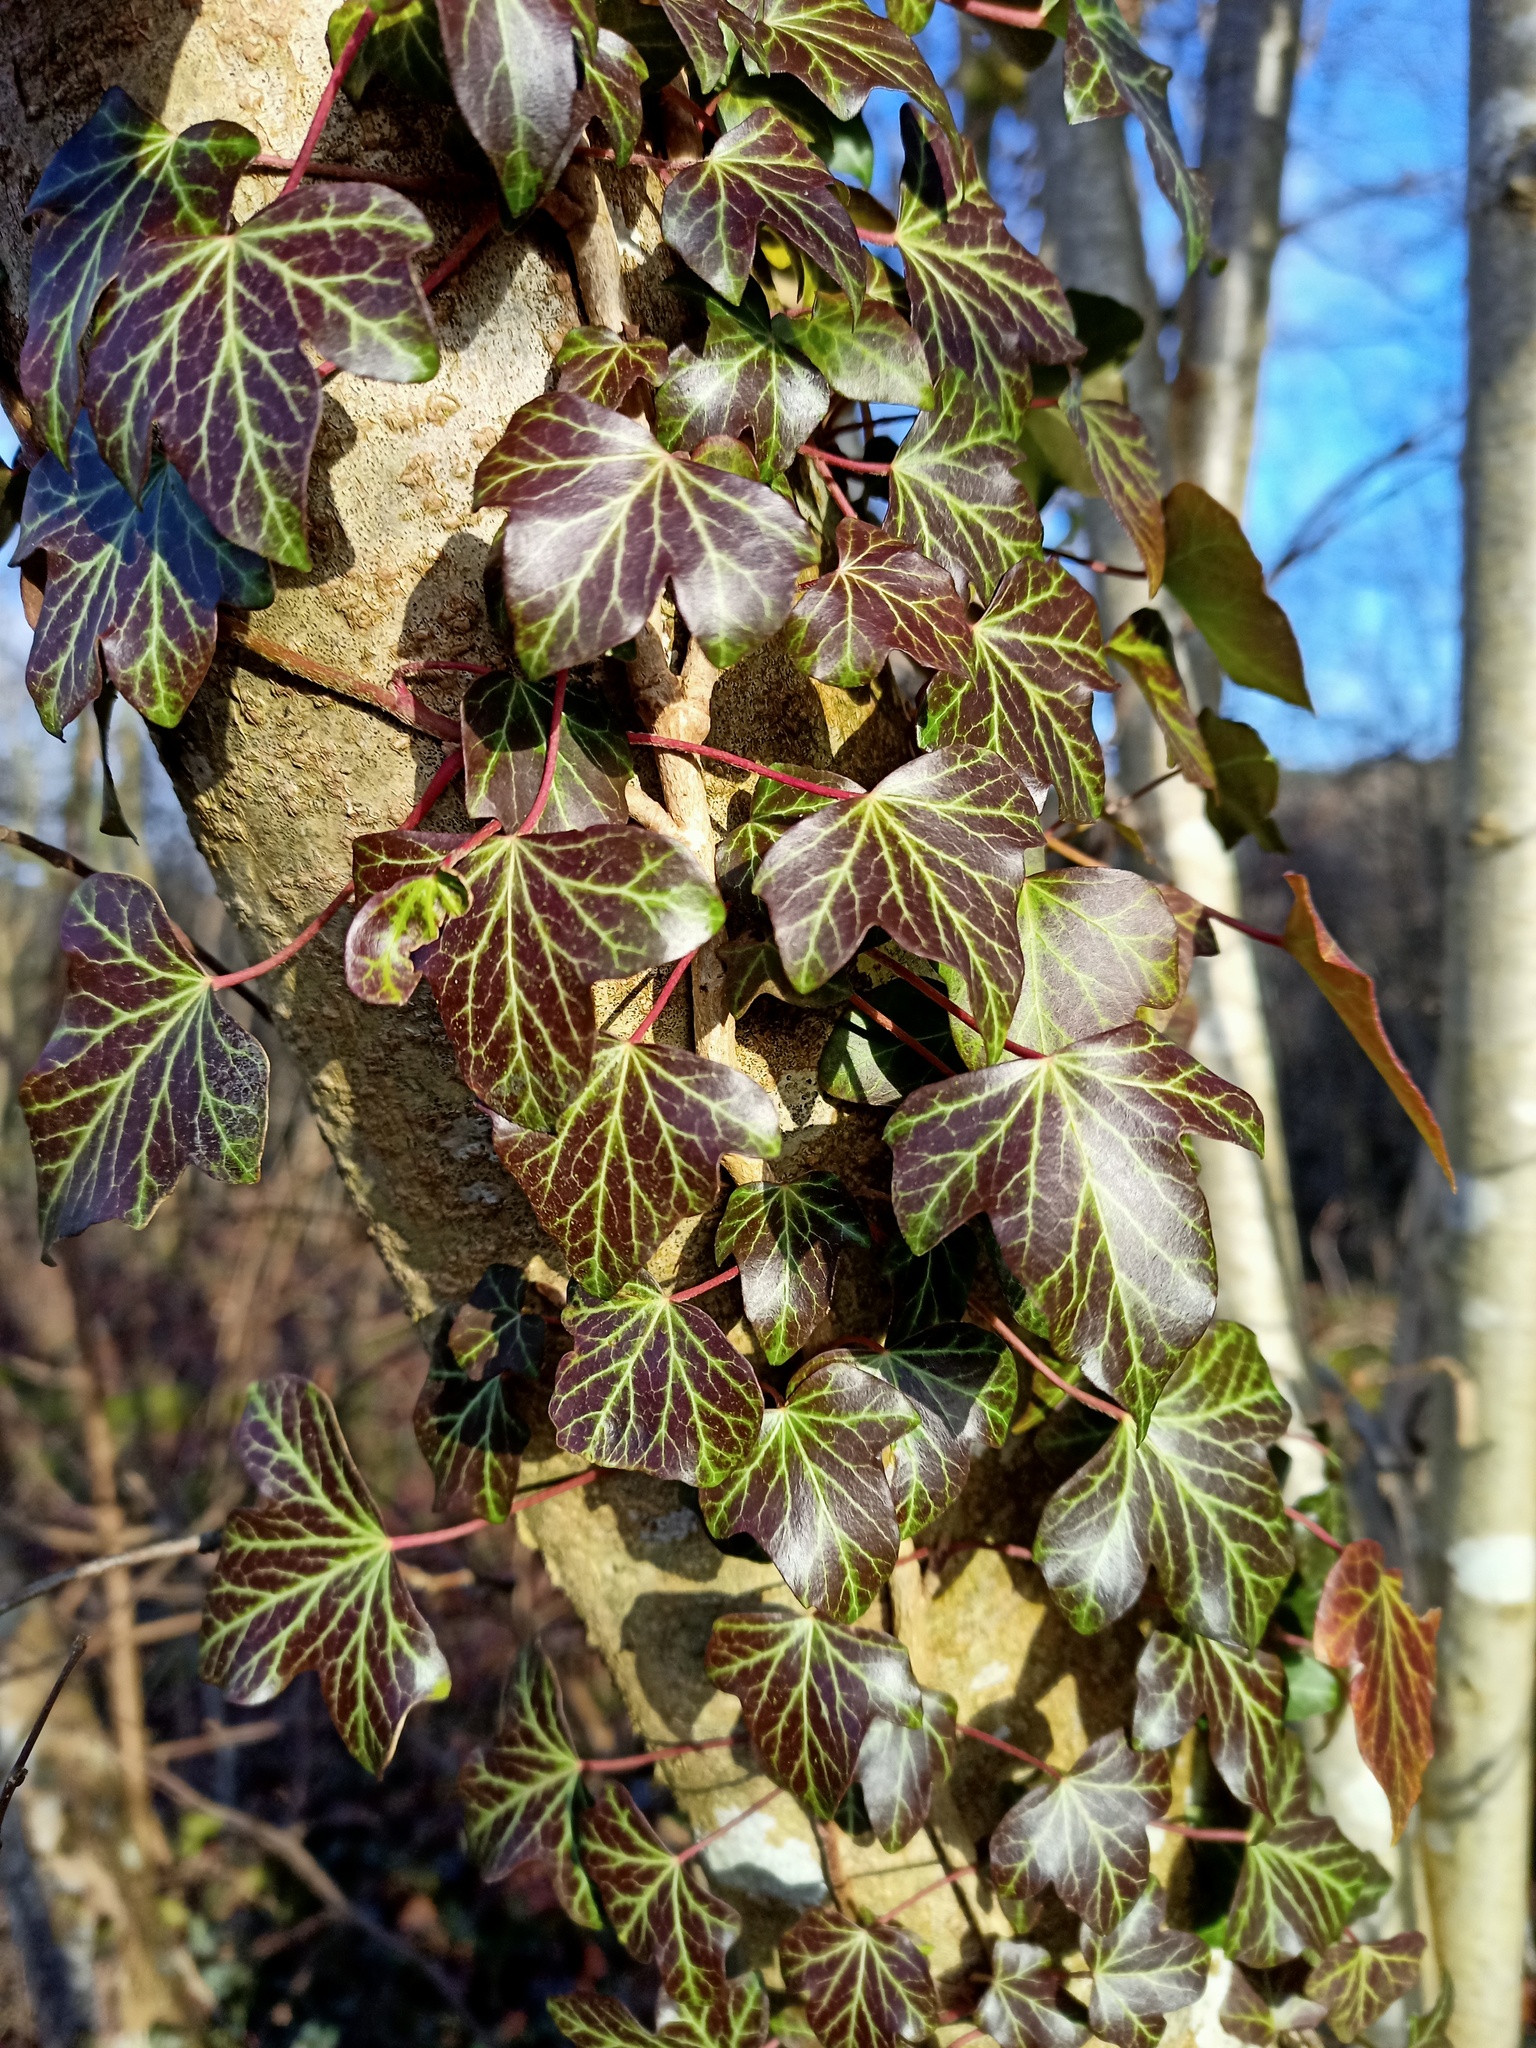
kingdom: Plantae
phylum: Tracheophyta
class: Magnoliopsida
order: Apiales
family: Araliaceae
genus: Hedera
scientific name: Hedera helix
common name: Ivy
